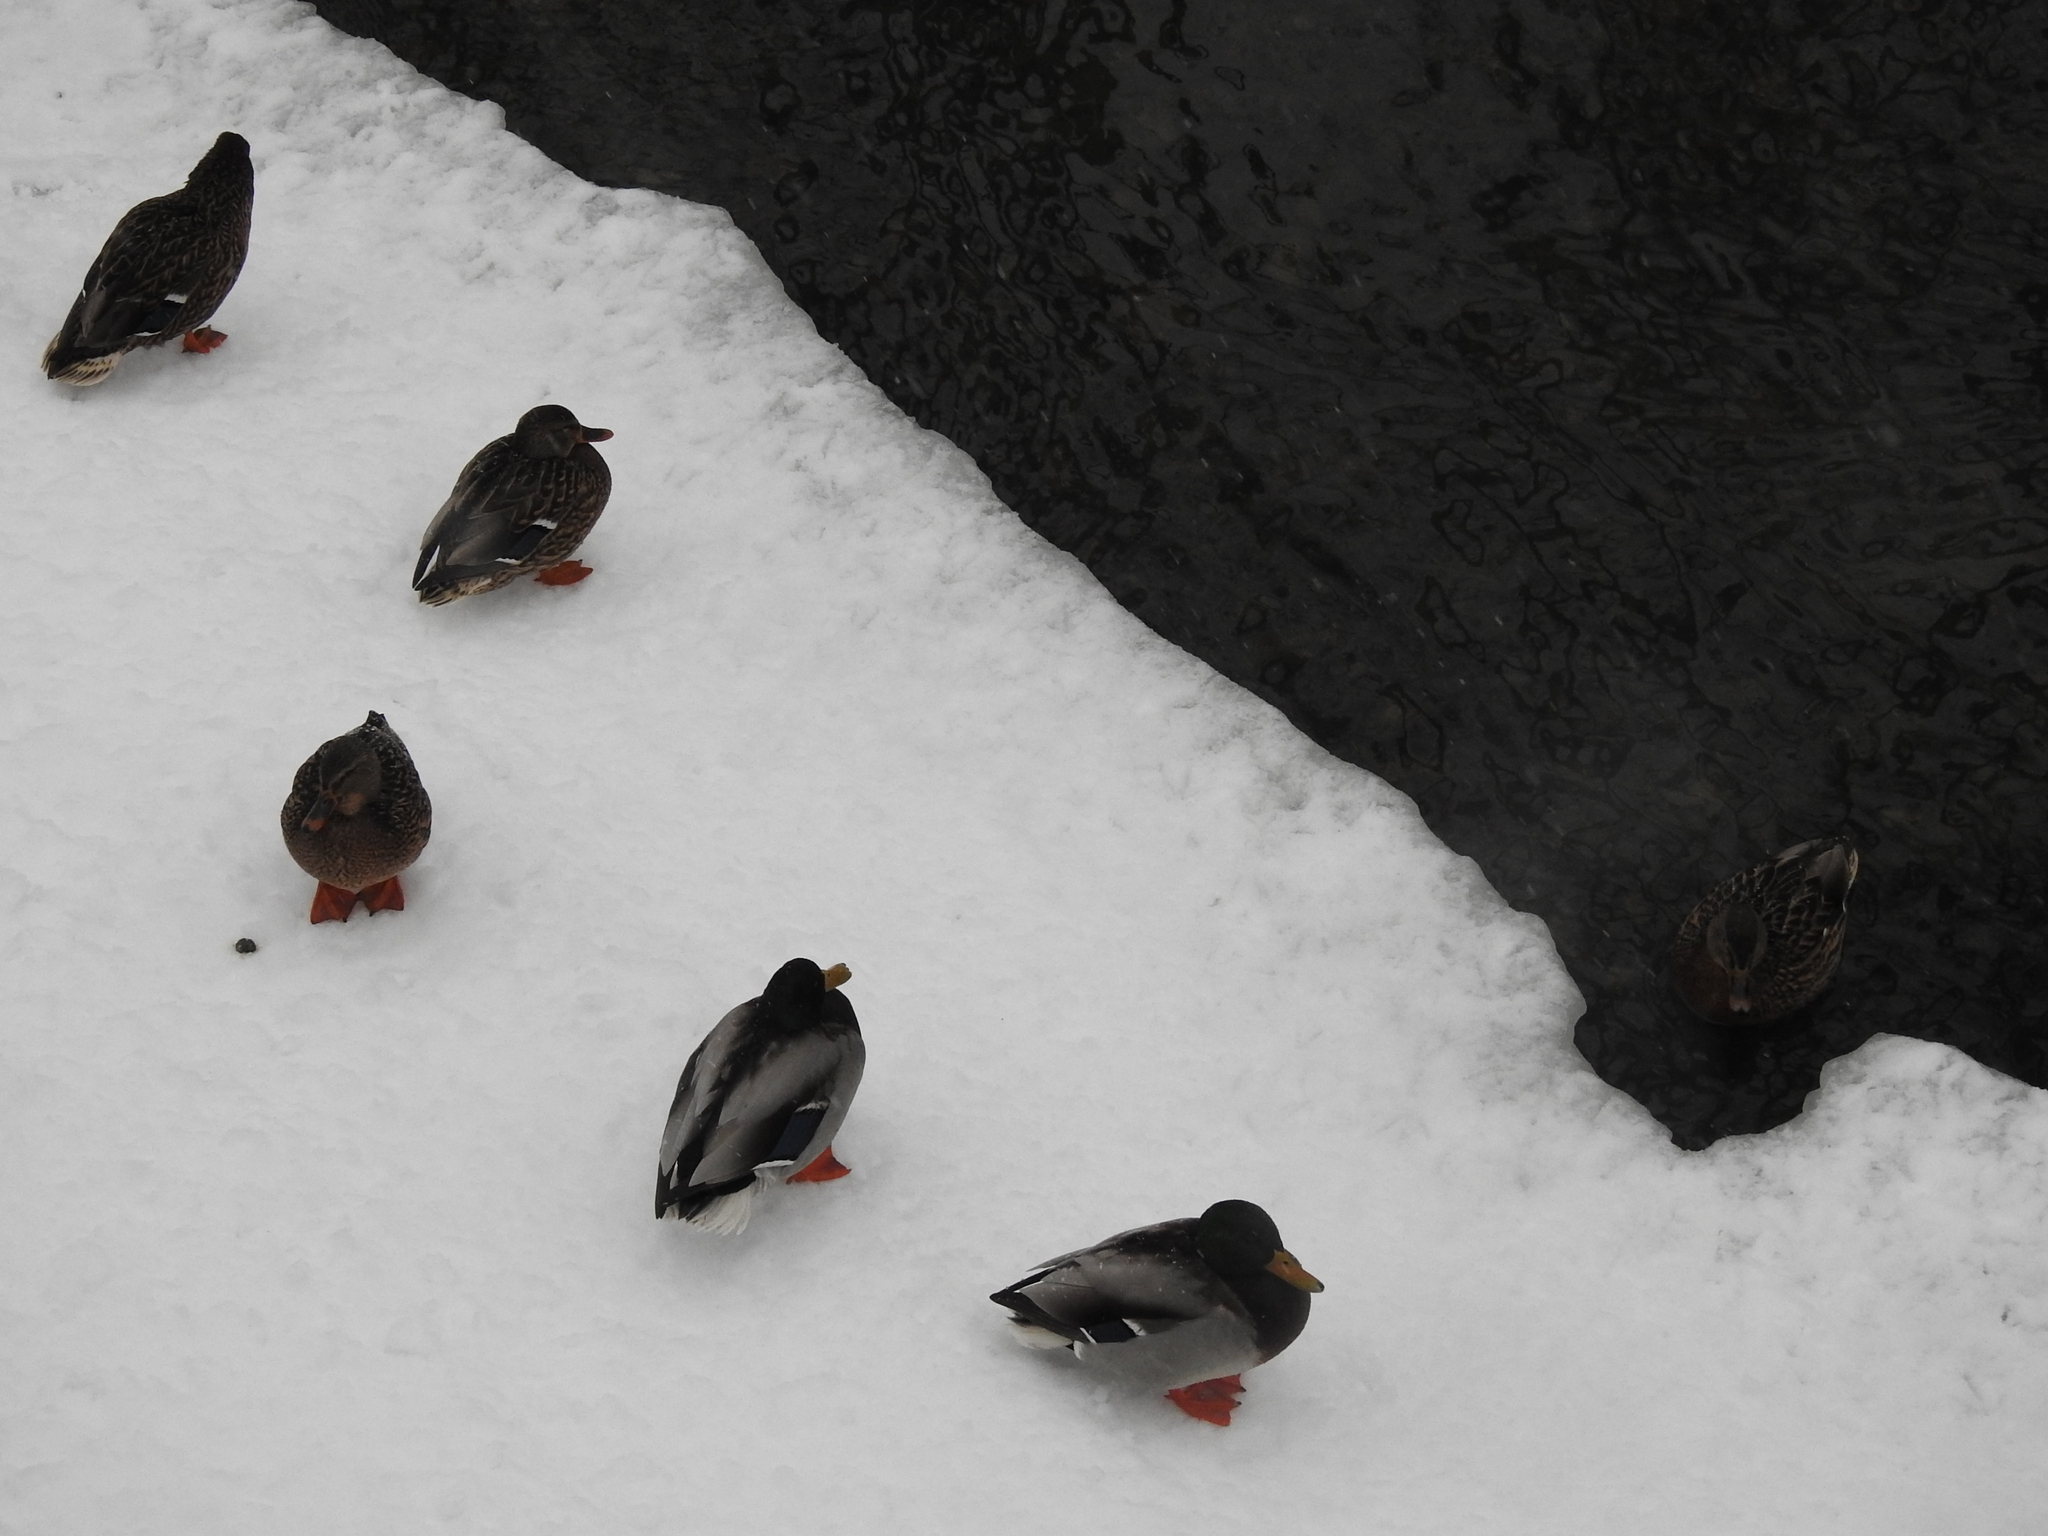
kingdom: Animalia
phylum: Chordata
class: Aves
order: Anseriformes
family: Anatidae
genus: Anas
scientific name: Anas platyrhynchos
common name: Mallard
